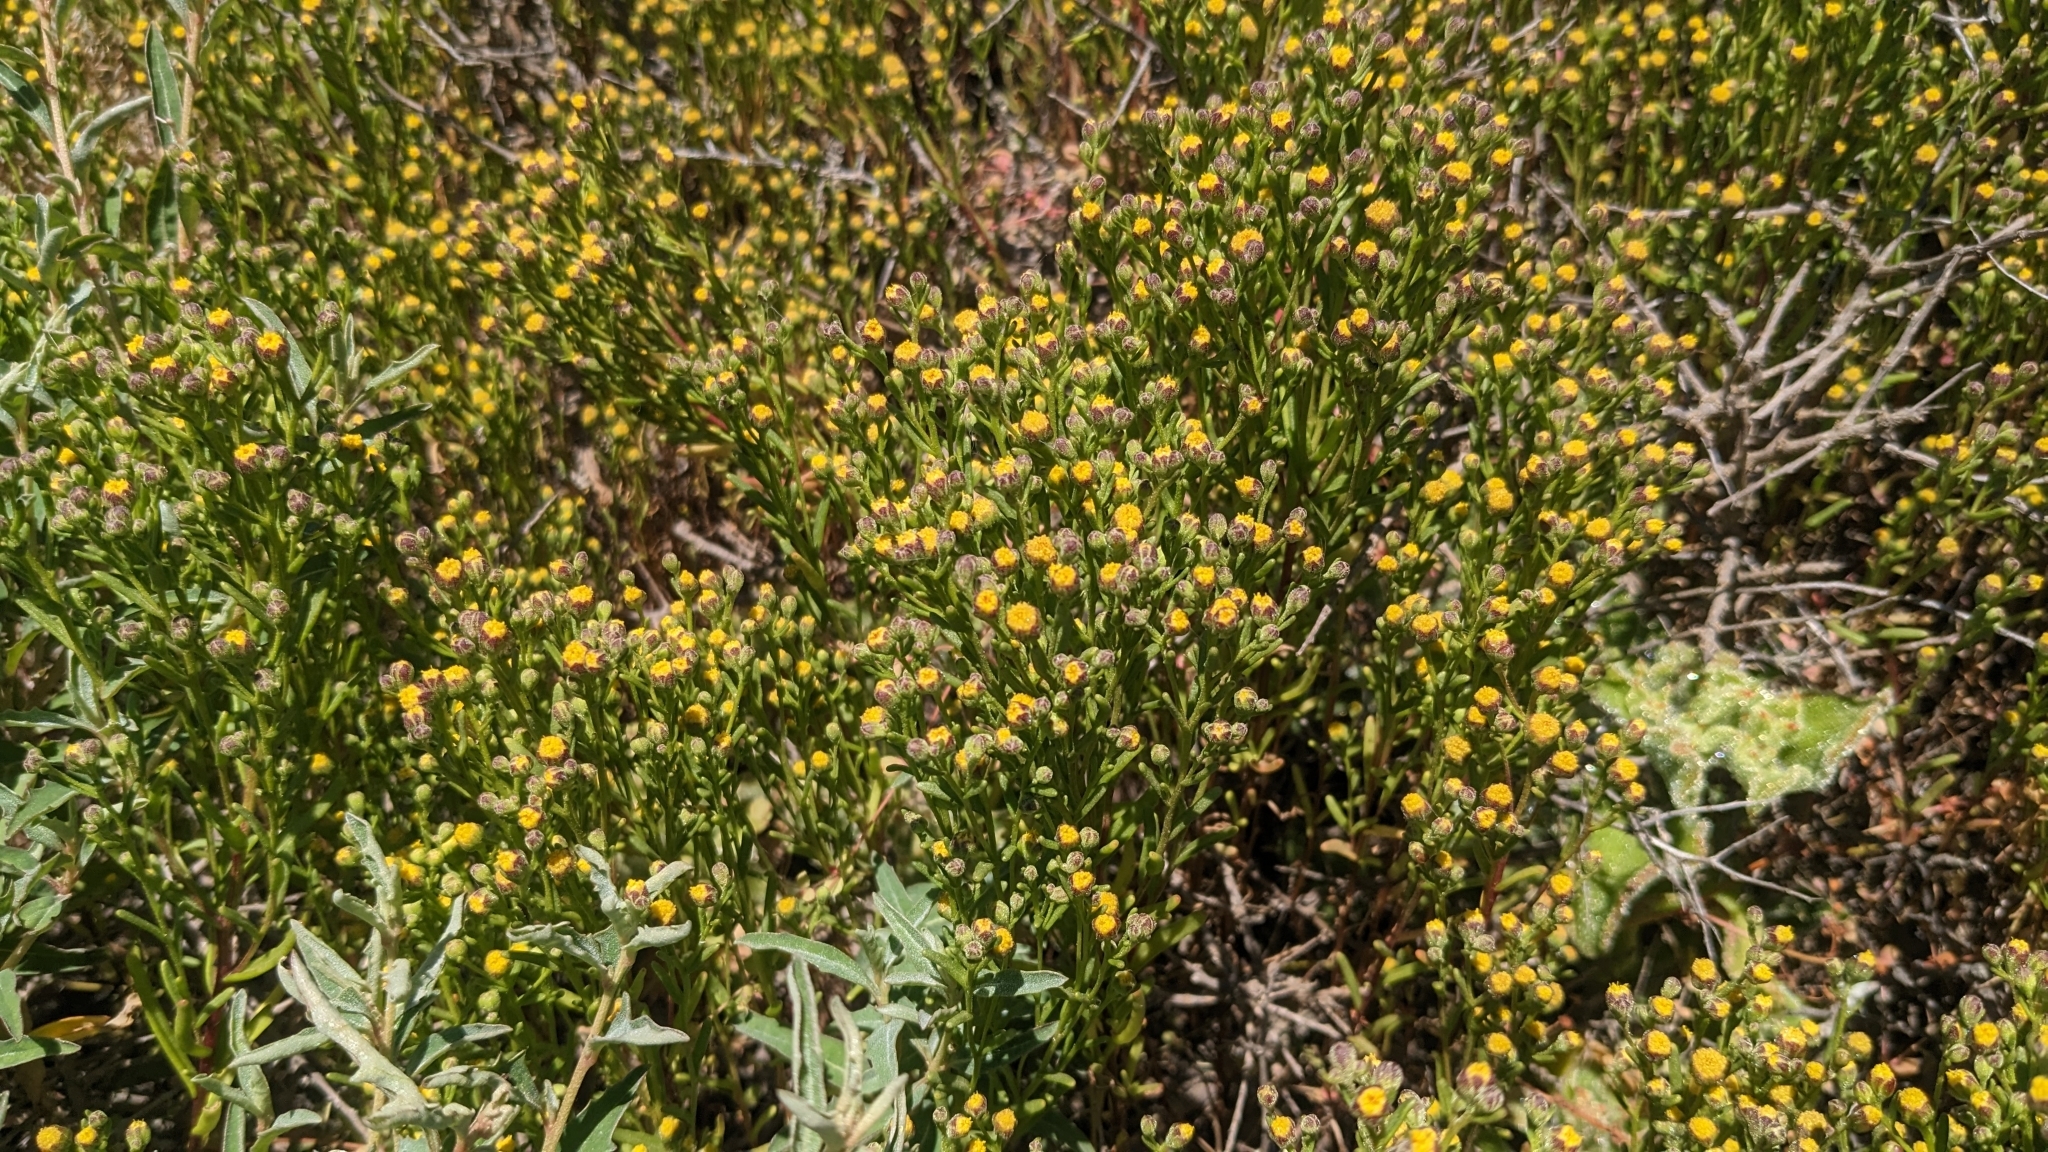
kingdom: Plantae
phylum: Tracheophyta
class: Magnoliopsida
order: Asterales
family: Asteraceae
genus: Amblyopappus
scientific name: Amblyopappus pusillus
